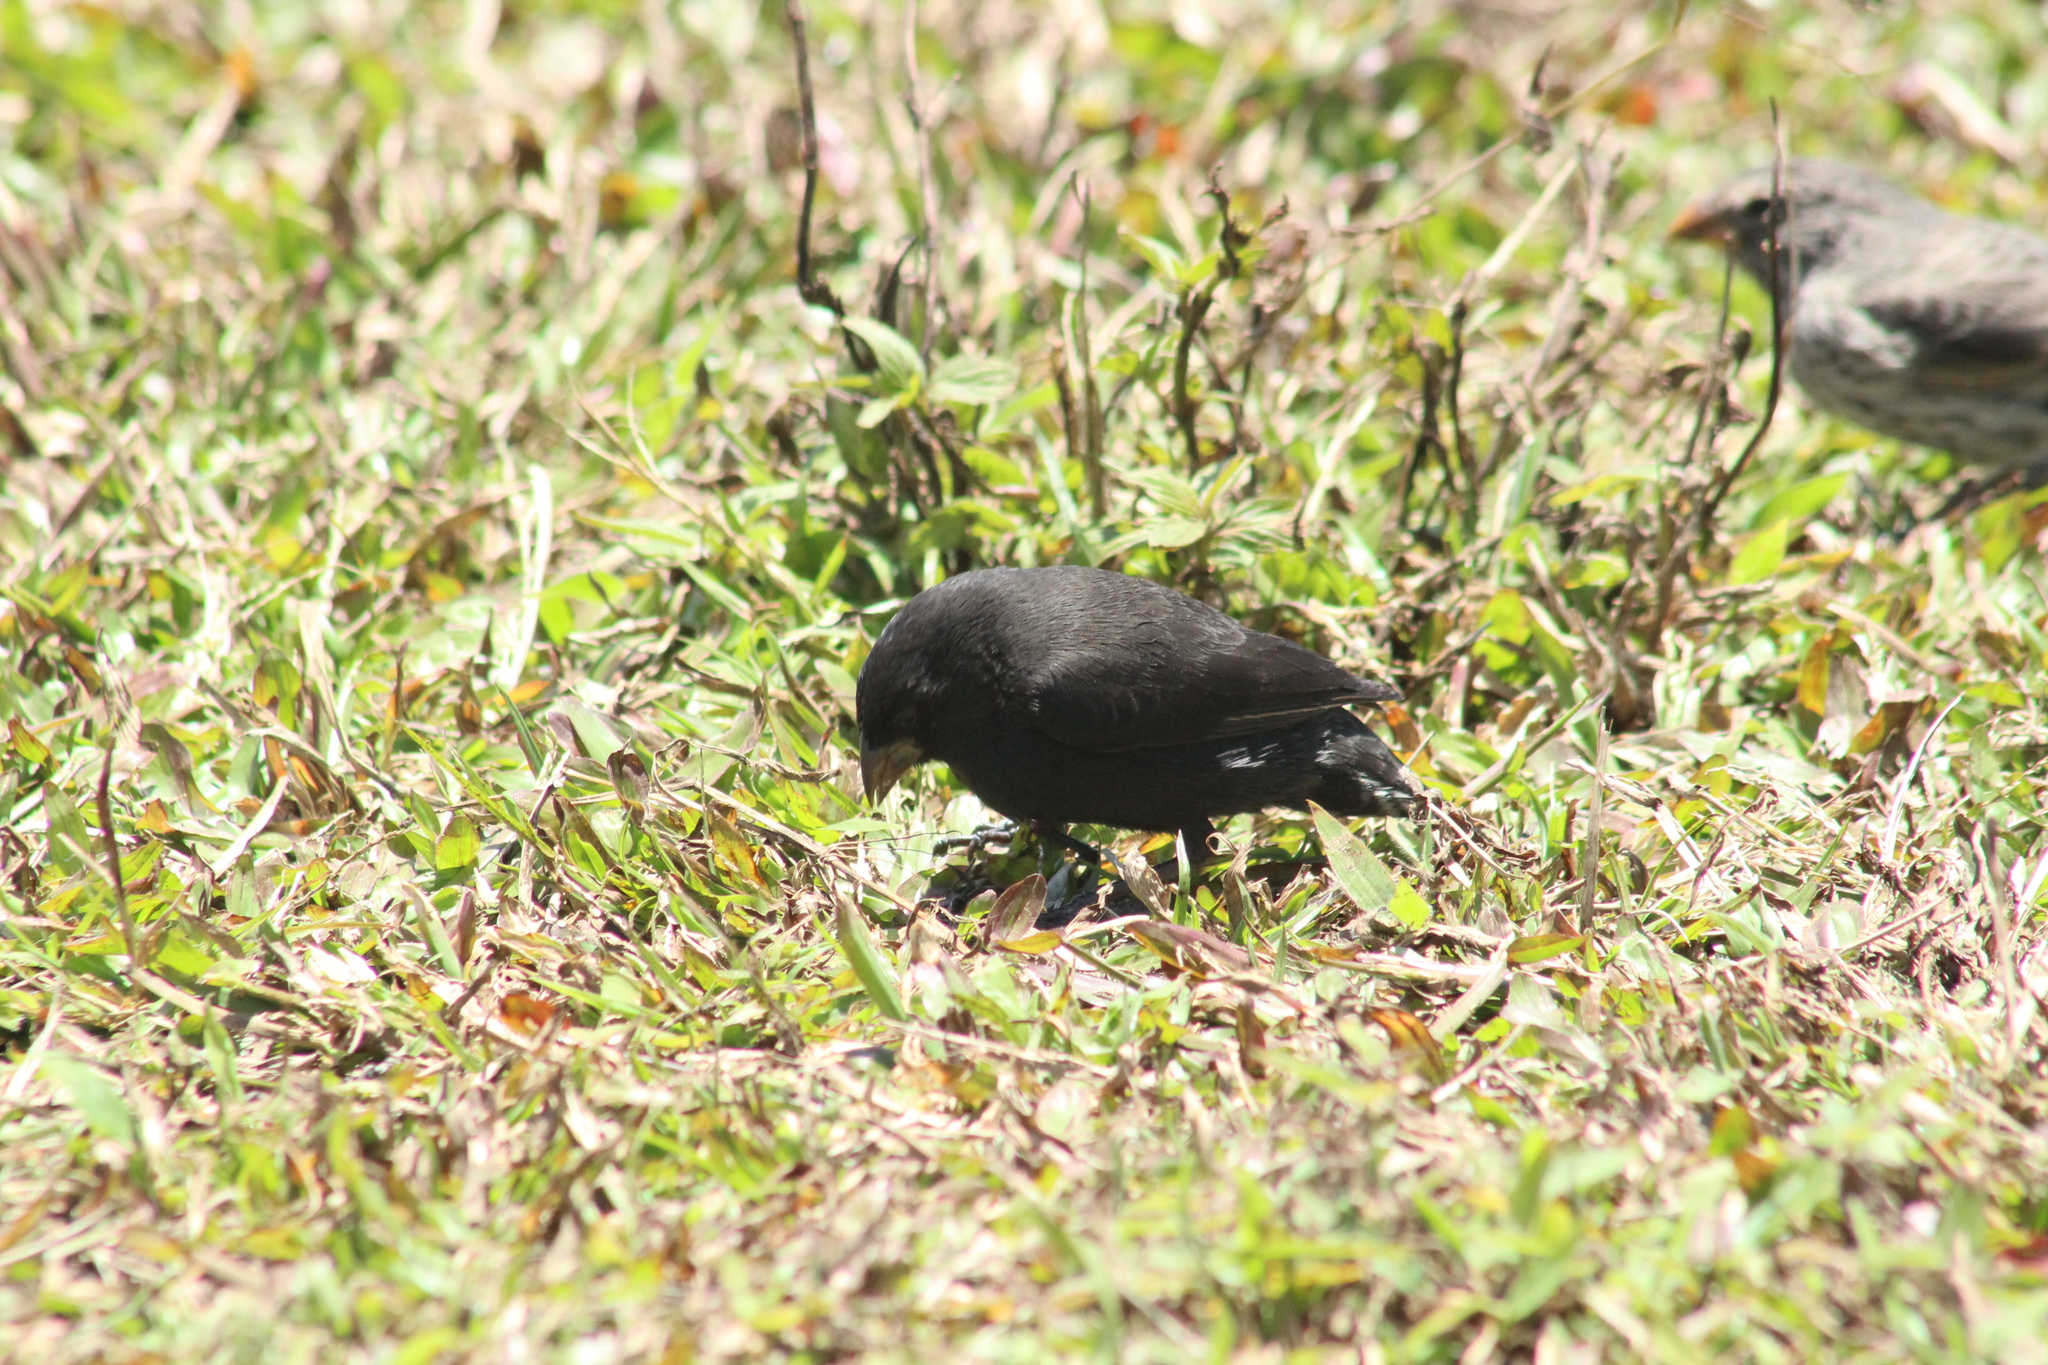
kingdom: Animalia
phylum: Chordata
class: Aves
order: Passeriformes
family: Thraupidae
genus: Geospiza
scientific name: Geospiza fortis
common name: Medium ground finch
